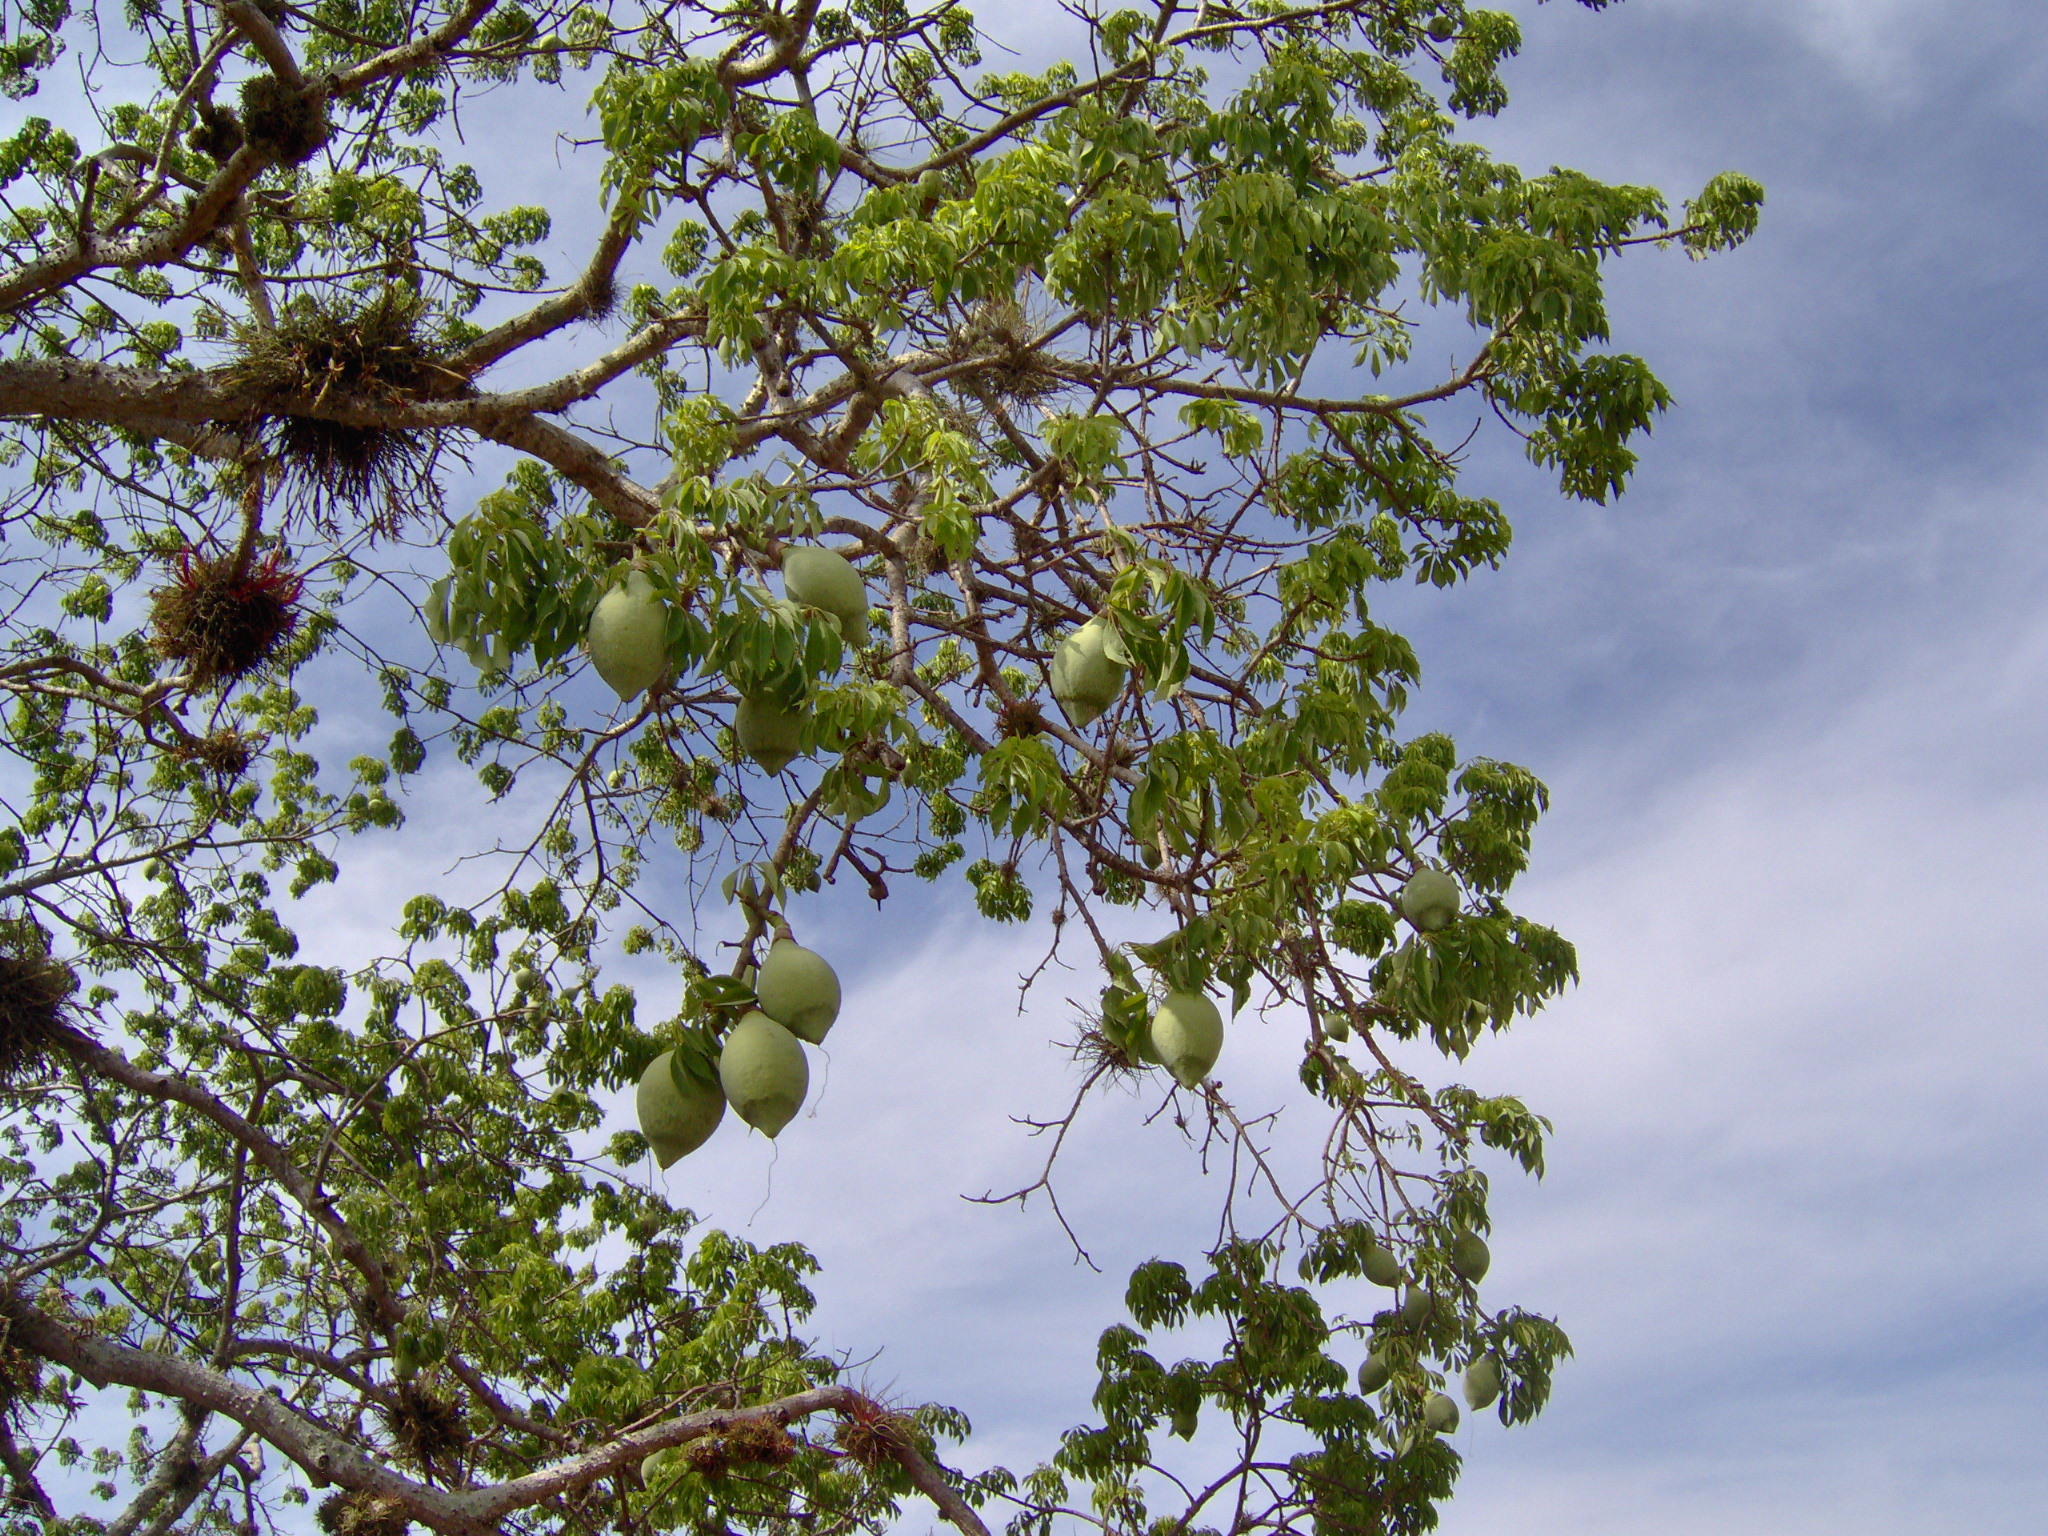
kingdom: Plantae
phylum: Tracheophyta
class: Magnoliopsida
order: Malvales
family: Malvaceae
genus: Ceiba
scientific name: Ceiba aesculifolia
